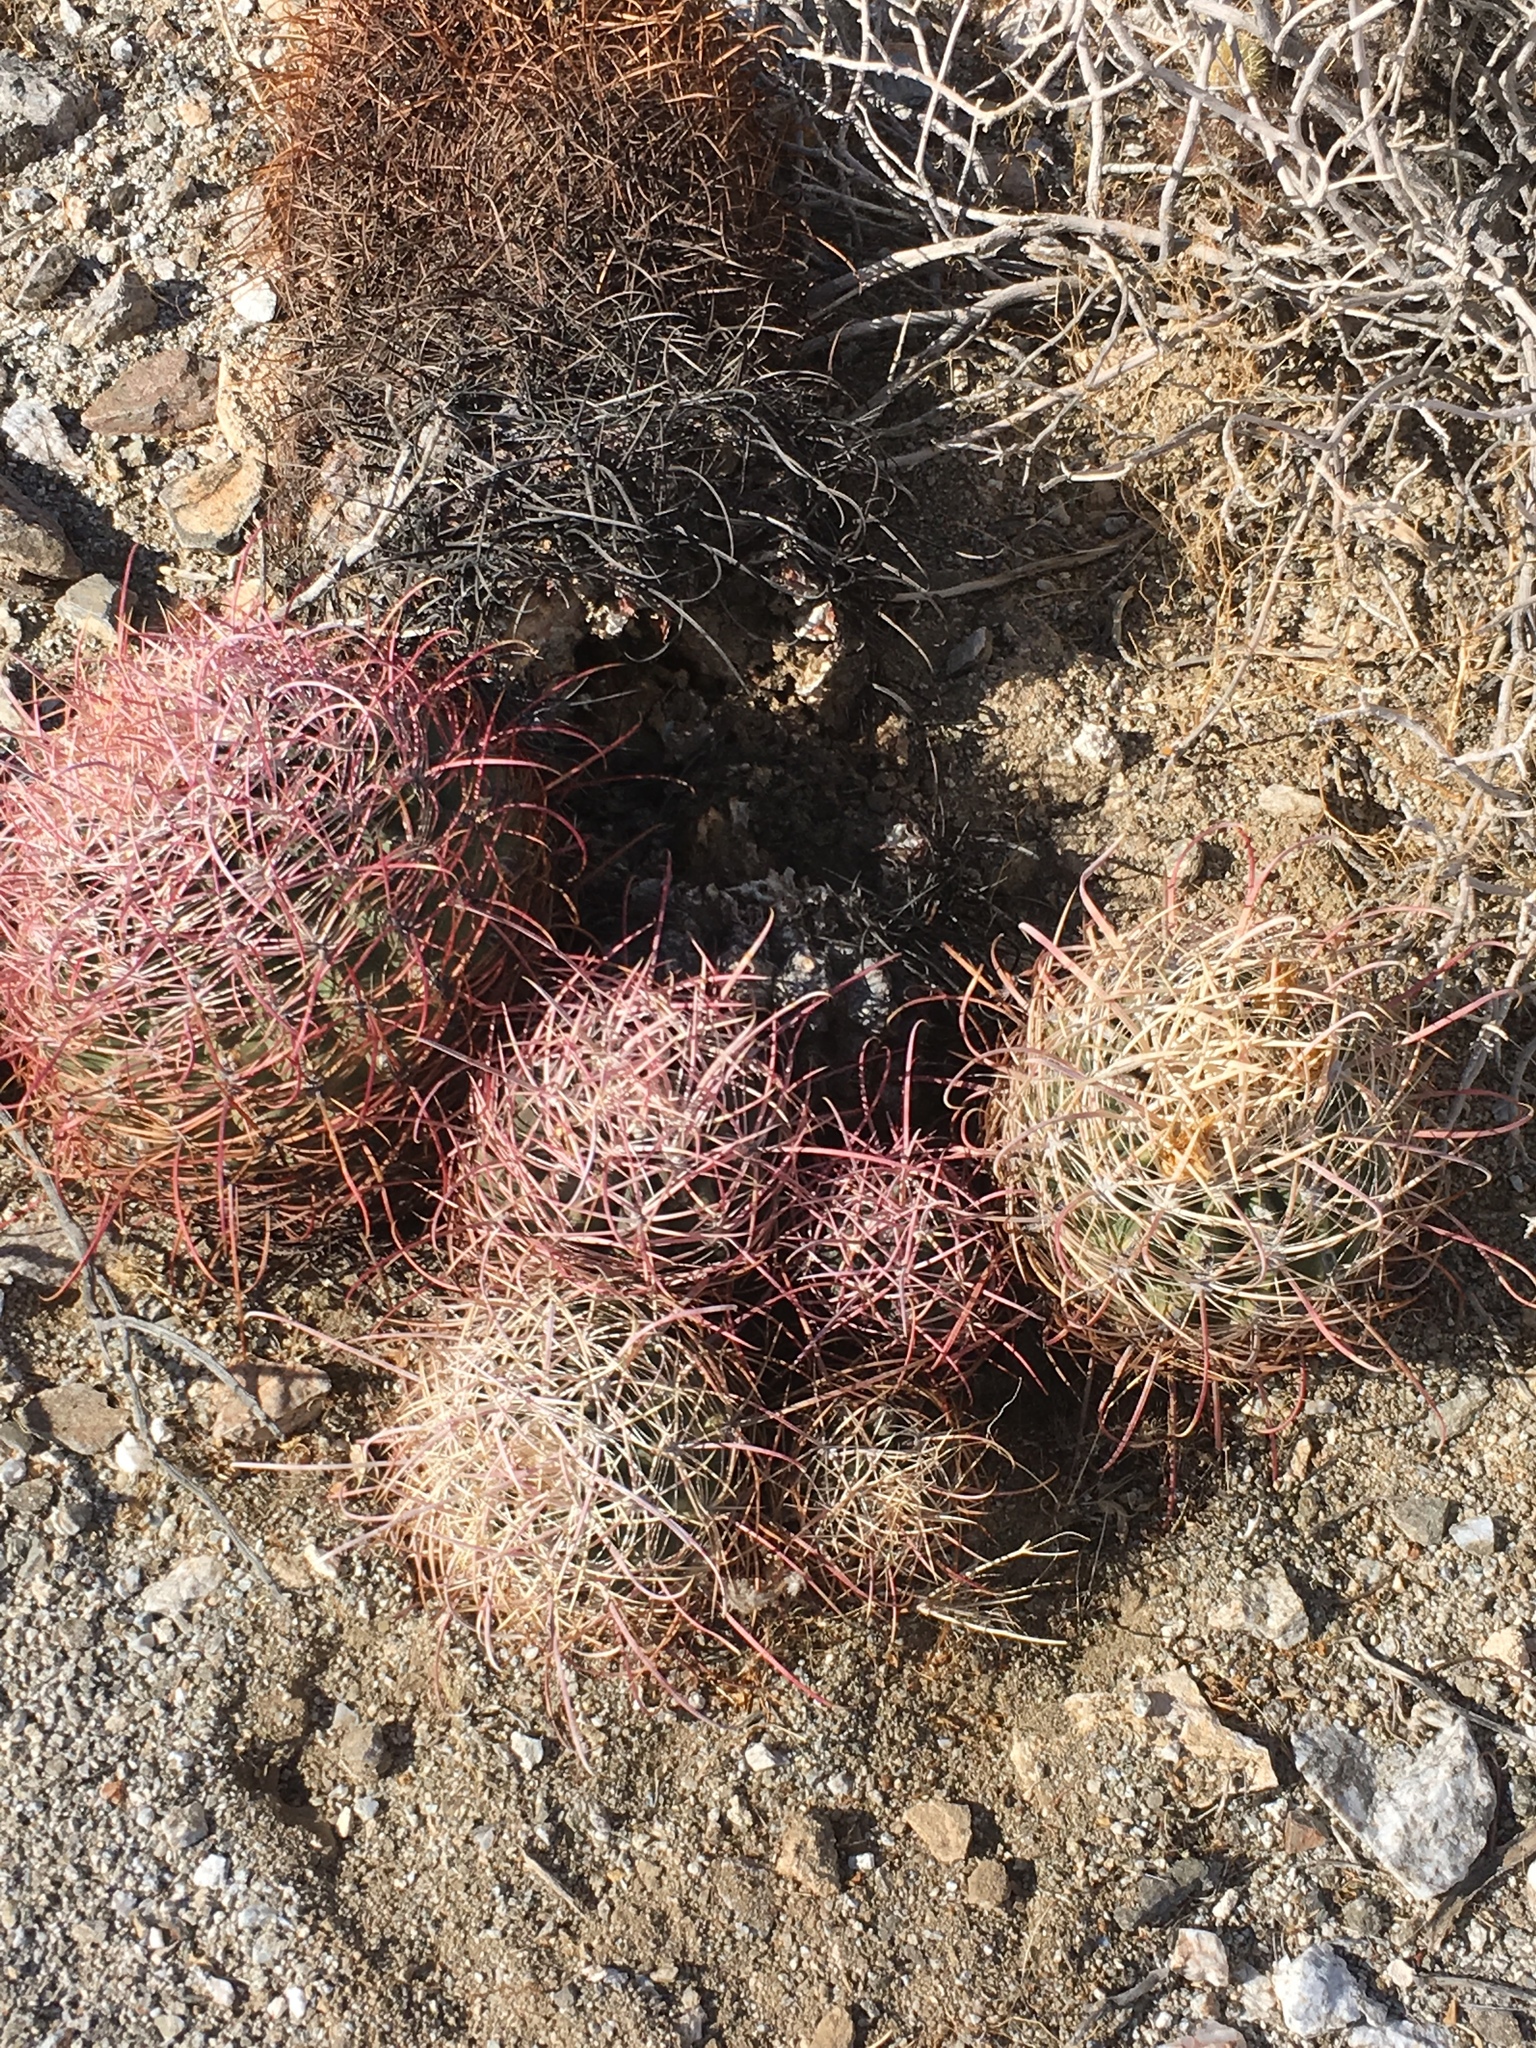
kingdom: Plantae
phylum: Tracheophyta
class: Magnoliopsida
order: Caryophyllales
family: Cactaceae
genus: Ferocactus
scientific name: Ferocactus cylindraceus
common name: California barrel cactus
